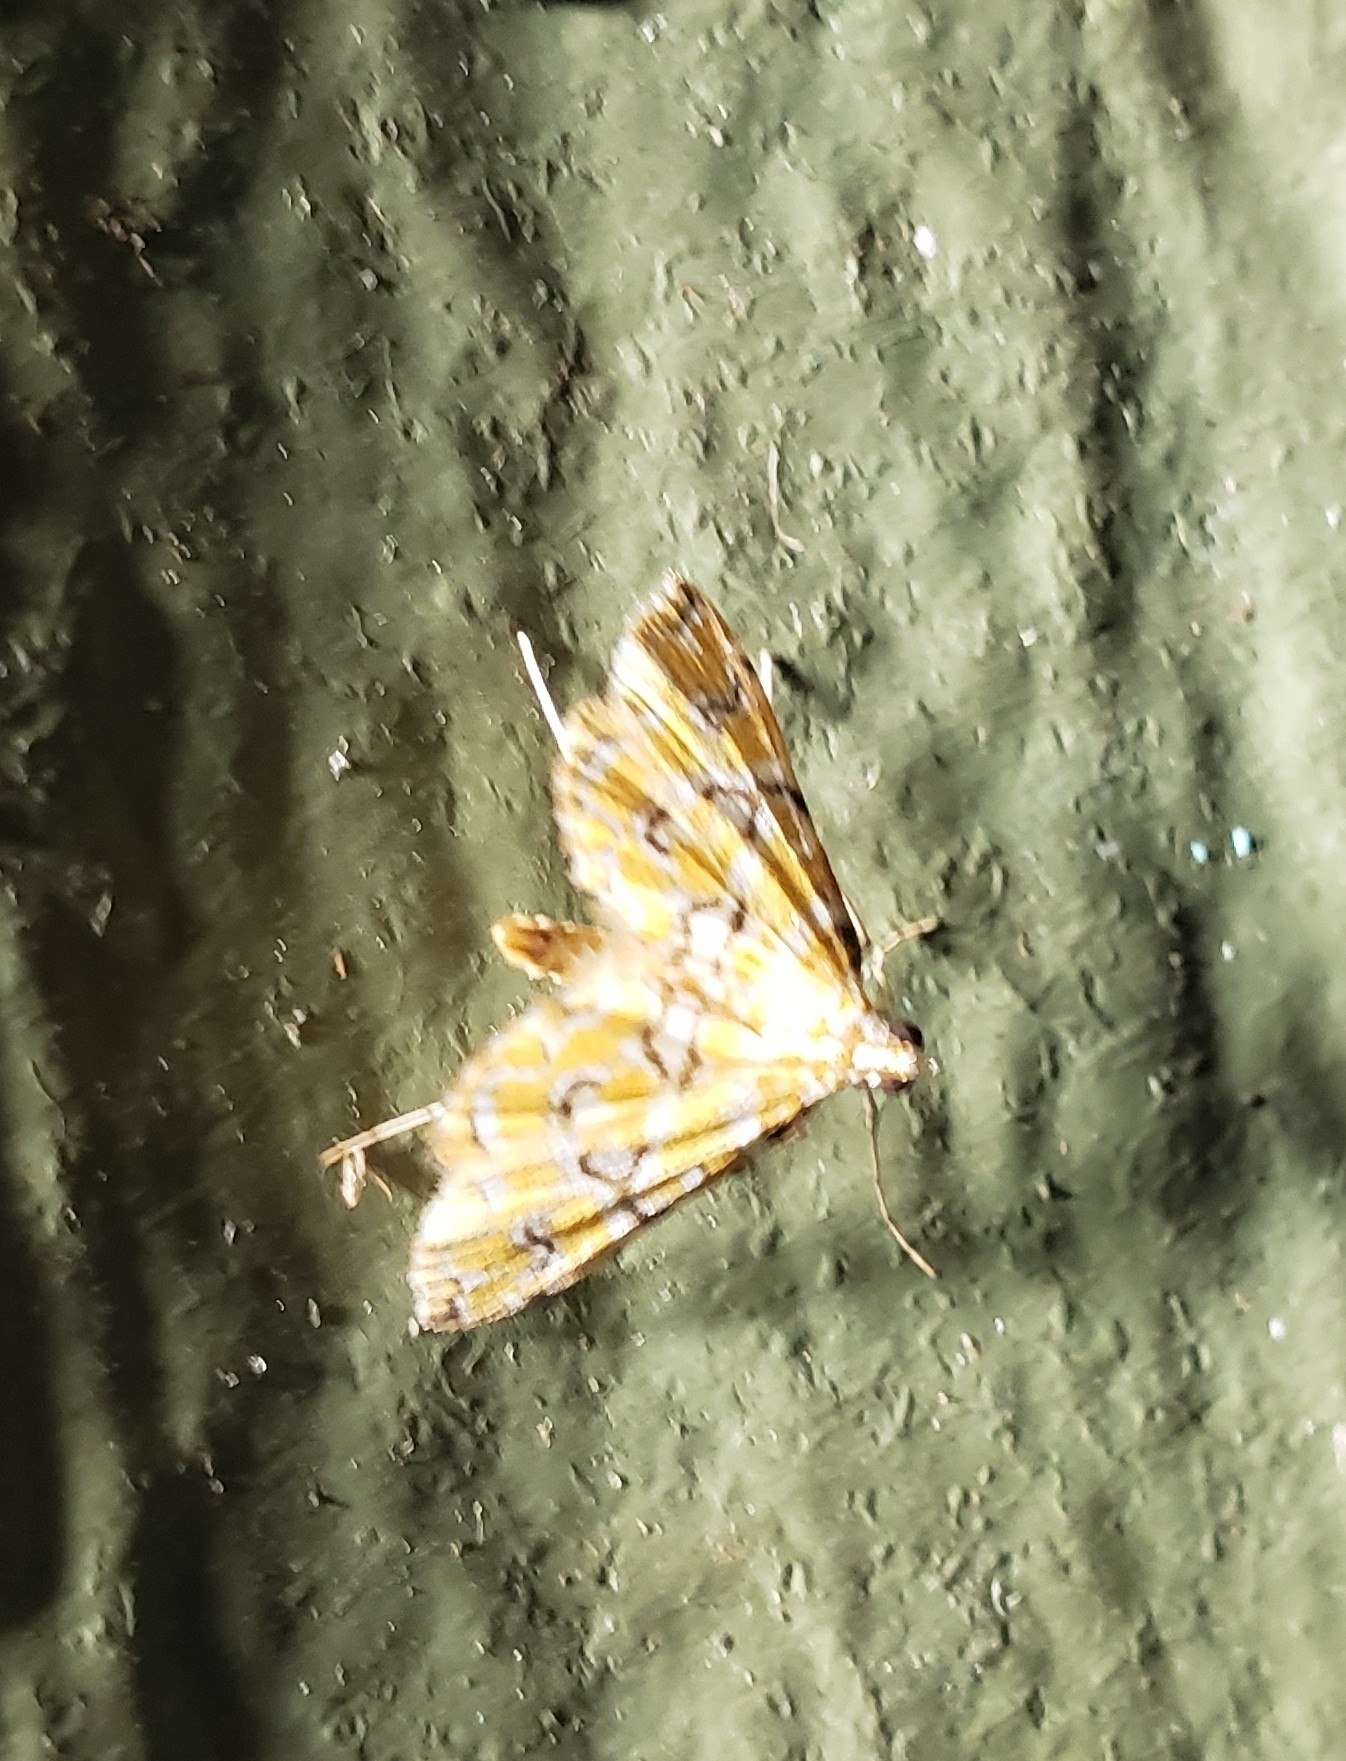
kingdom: Animalia
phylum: Arthropoda
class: Insecta
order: Lepidoptera
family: Crambidae
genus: Elophila
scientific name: Elophila icciusalis
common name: Pondside pyralid moth
